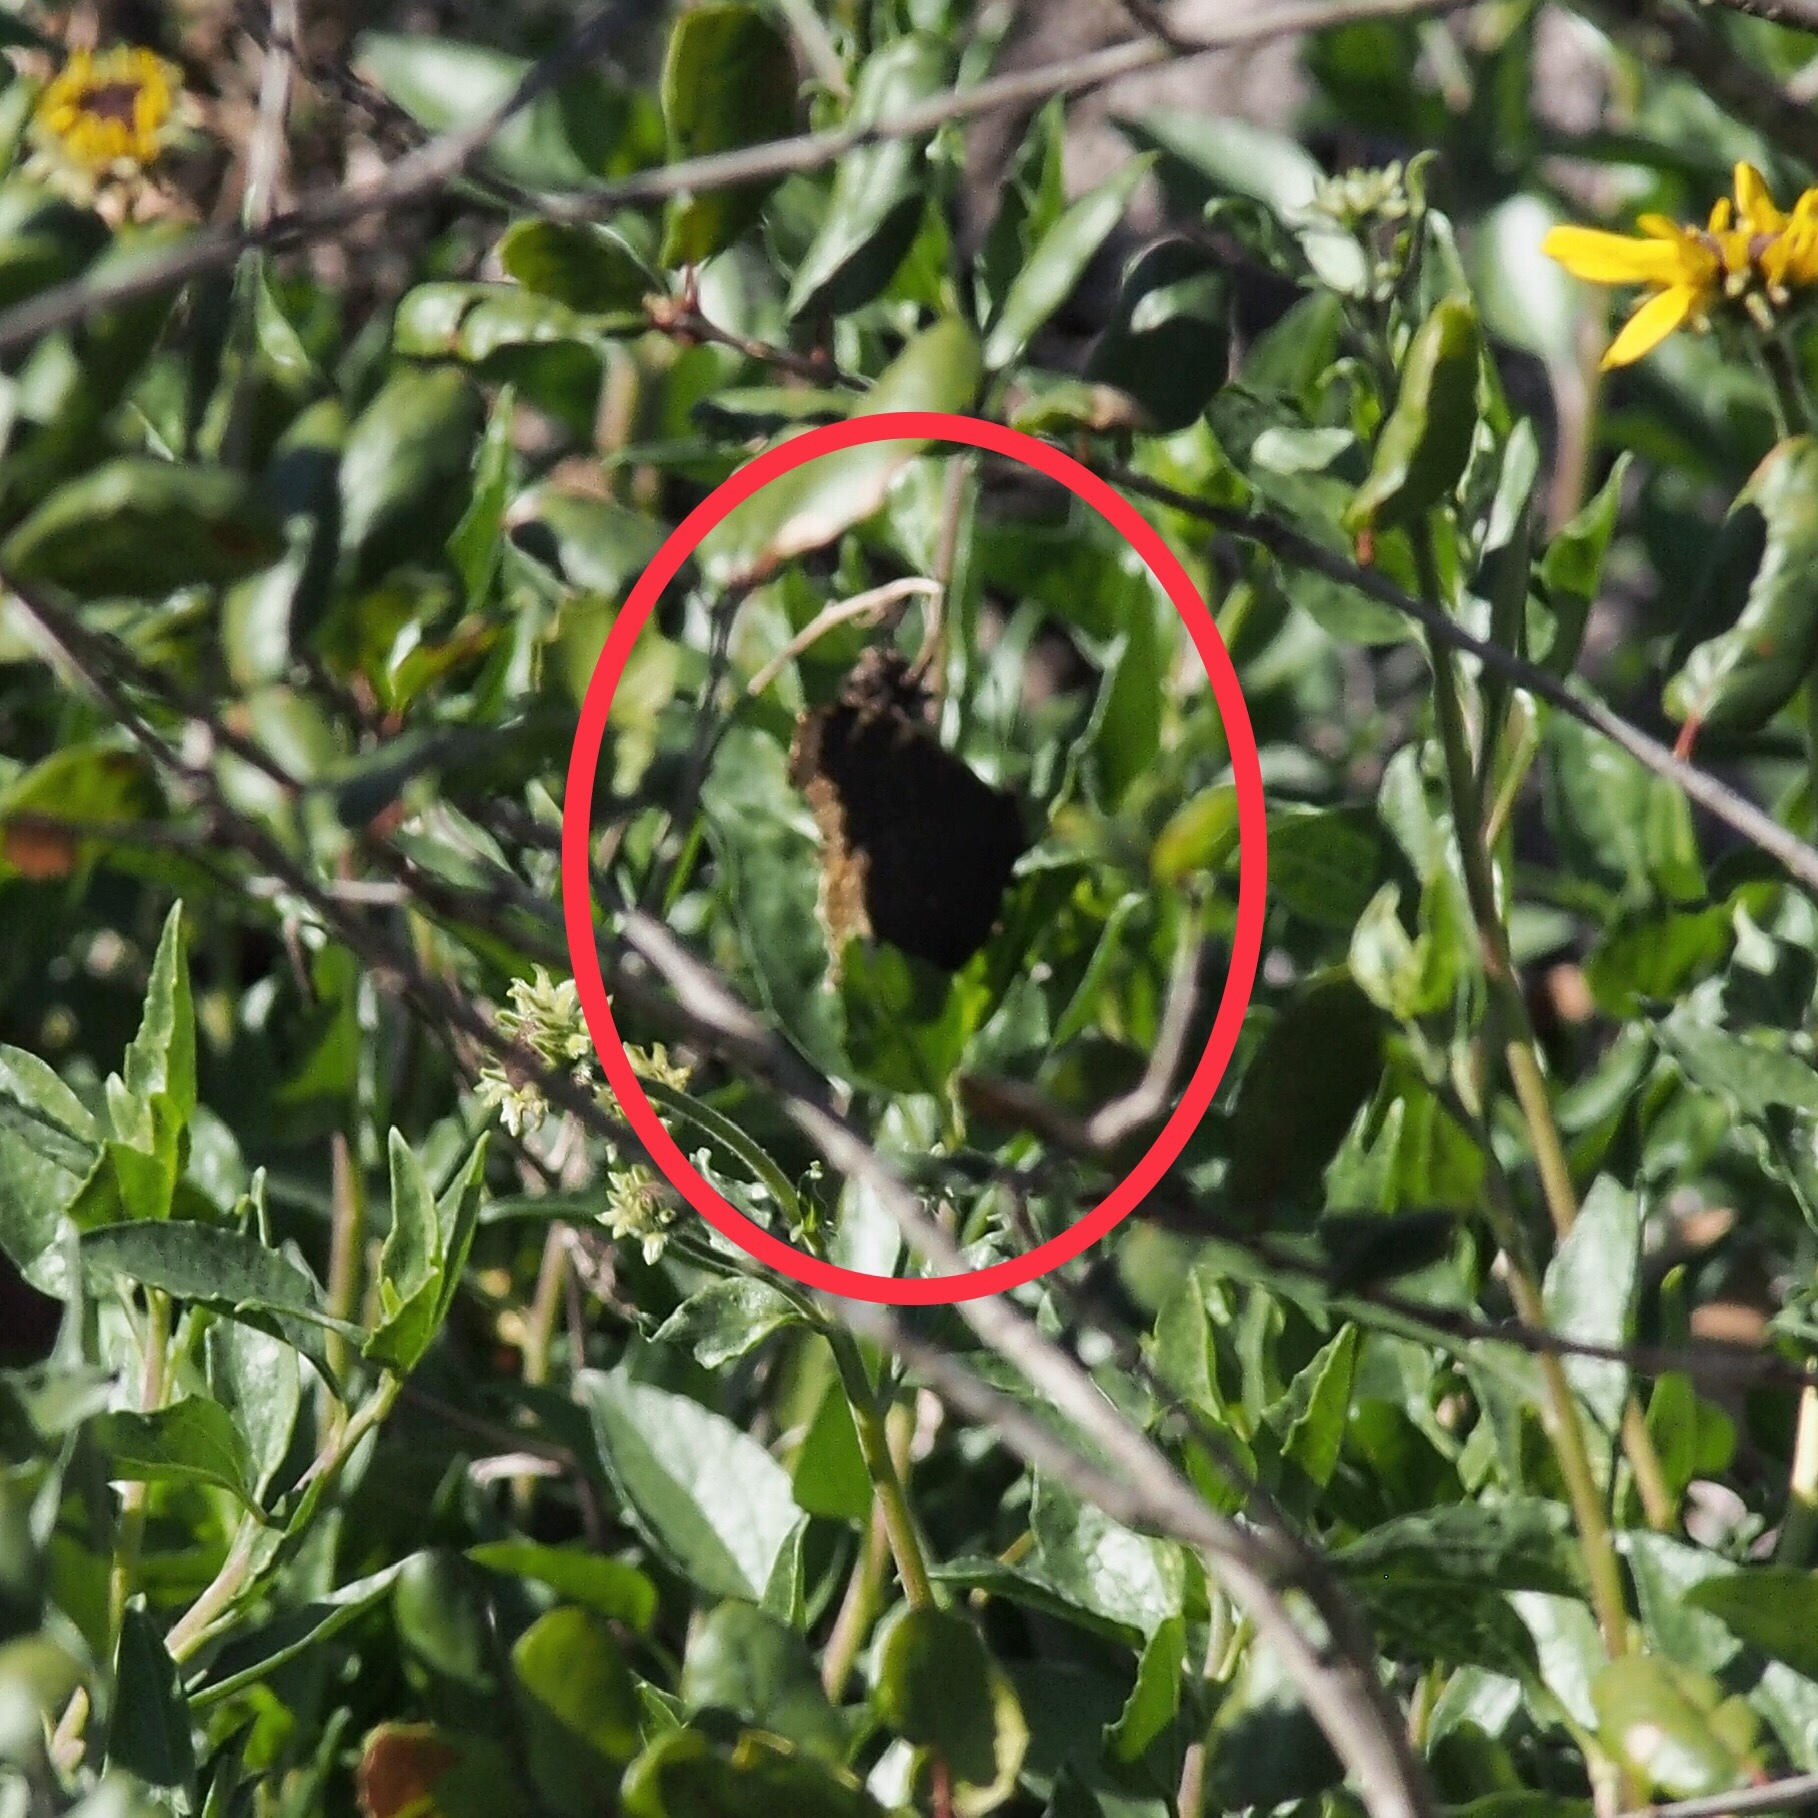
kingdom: Animalia
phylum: Arthropoda
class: Insecta
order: Lepidoptera
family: Nymphalidae
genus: Nymphalis
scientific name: Nymphalis antiopa
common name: Camberwell beauty
